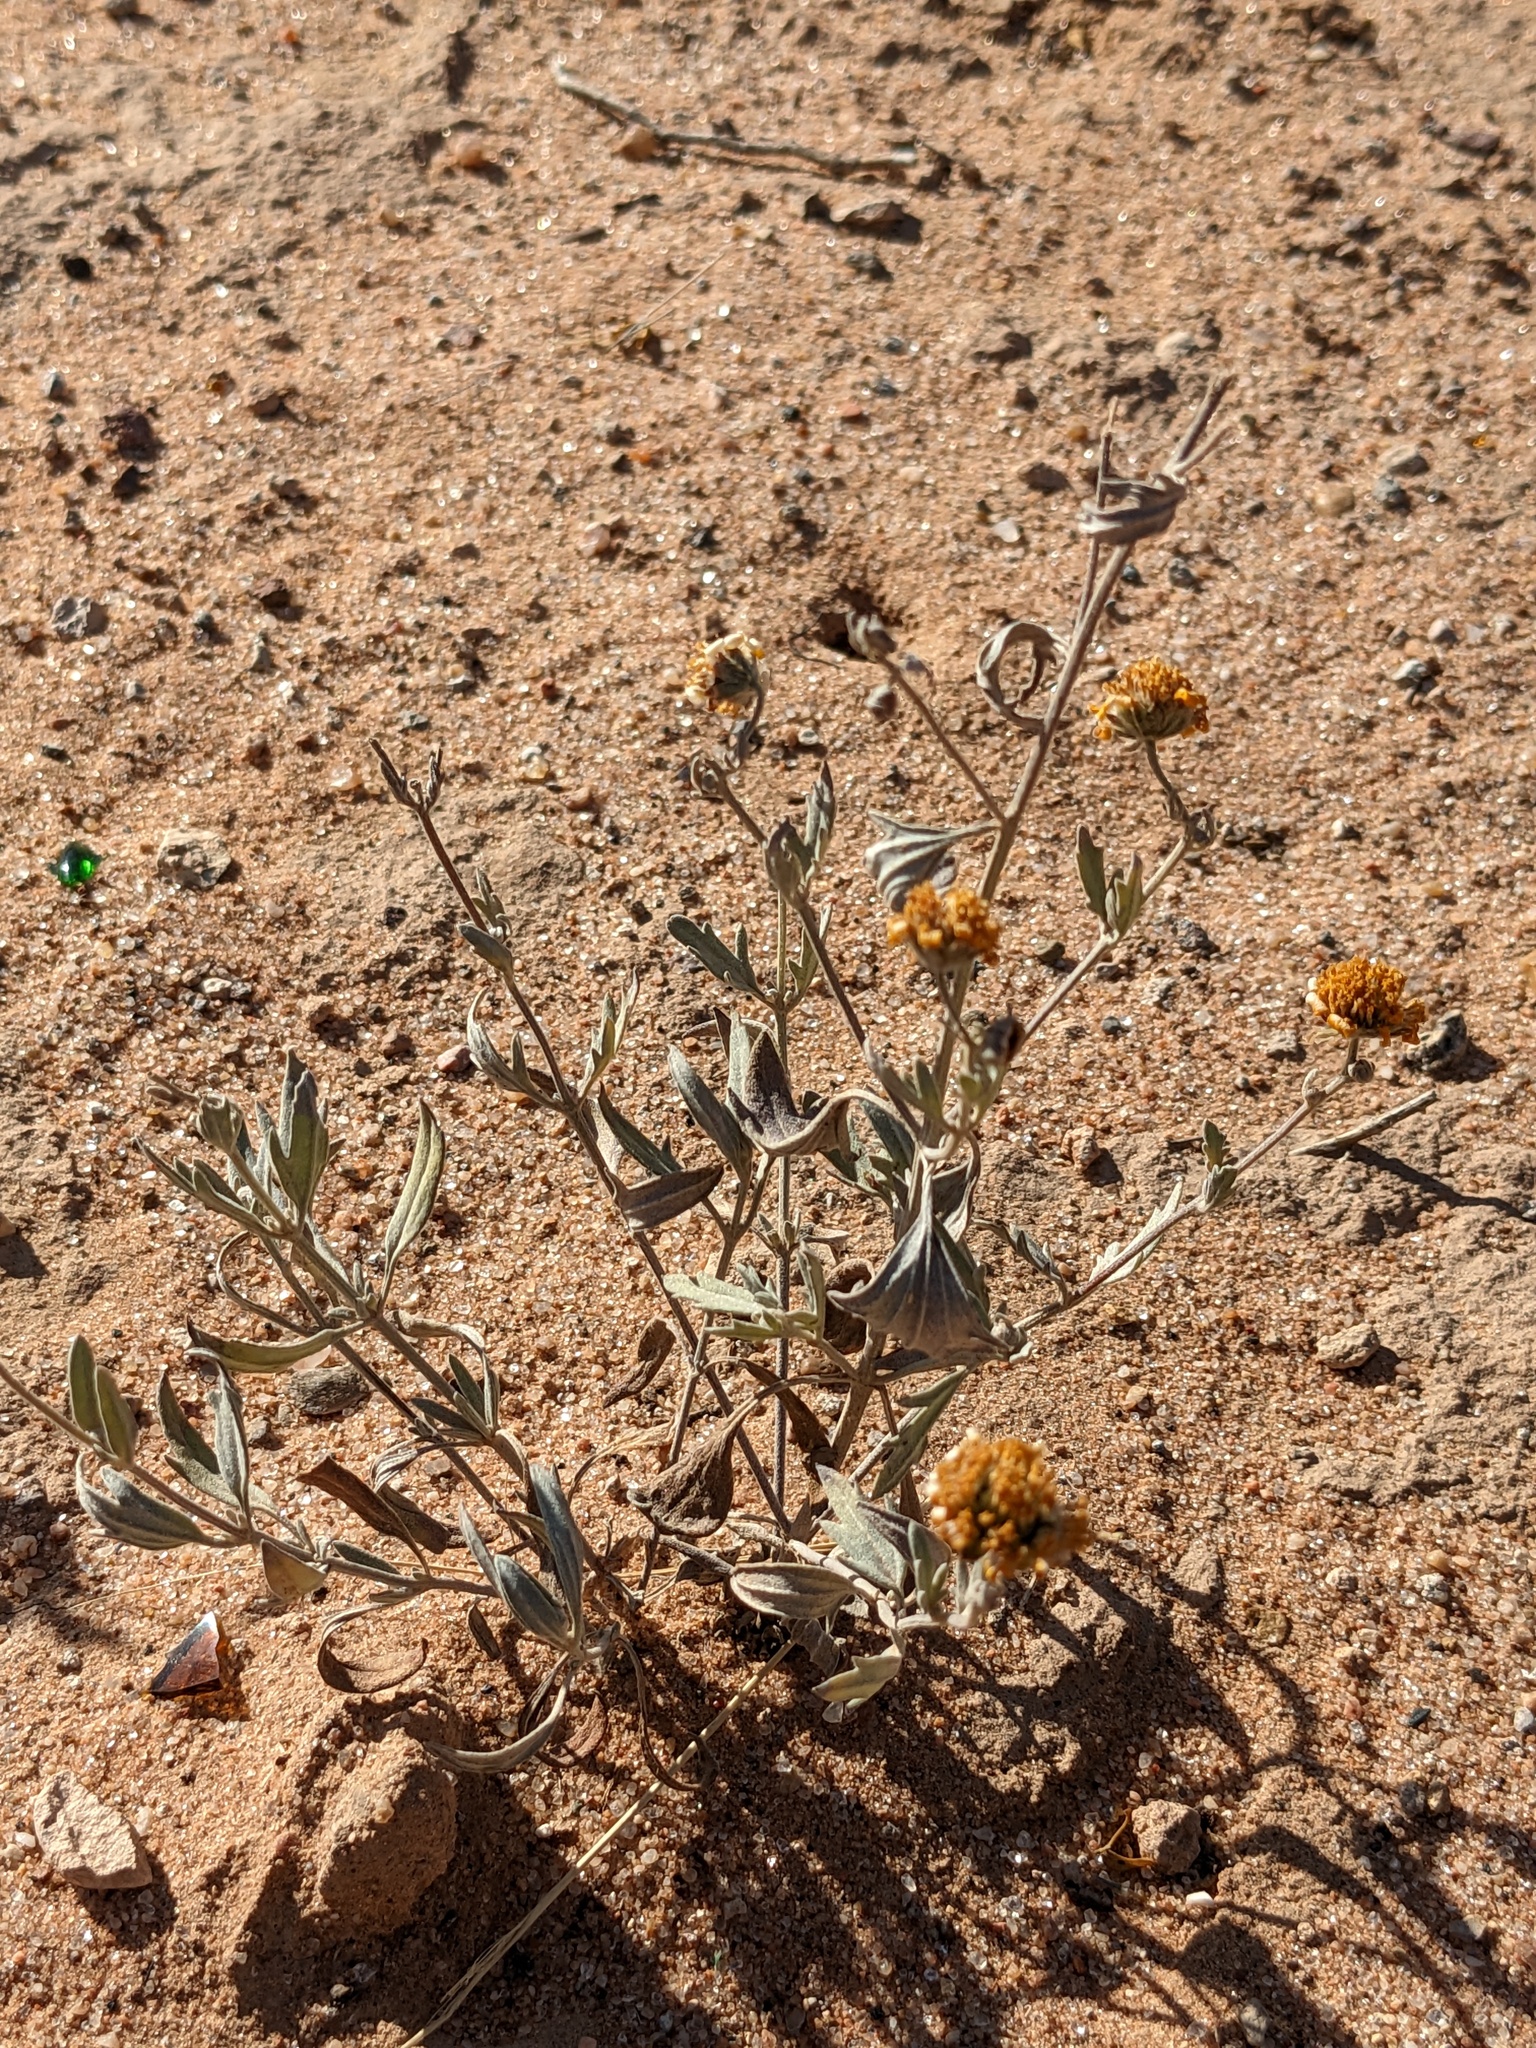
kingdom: Plantae
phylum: Tracheophyta
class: Magnoliopsida
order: Asterales
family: Asteraceae
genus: Picradeniopsis
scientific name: Picradeniopsis absinthifolia
